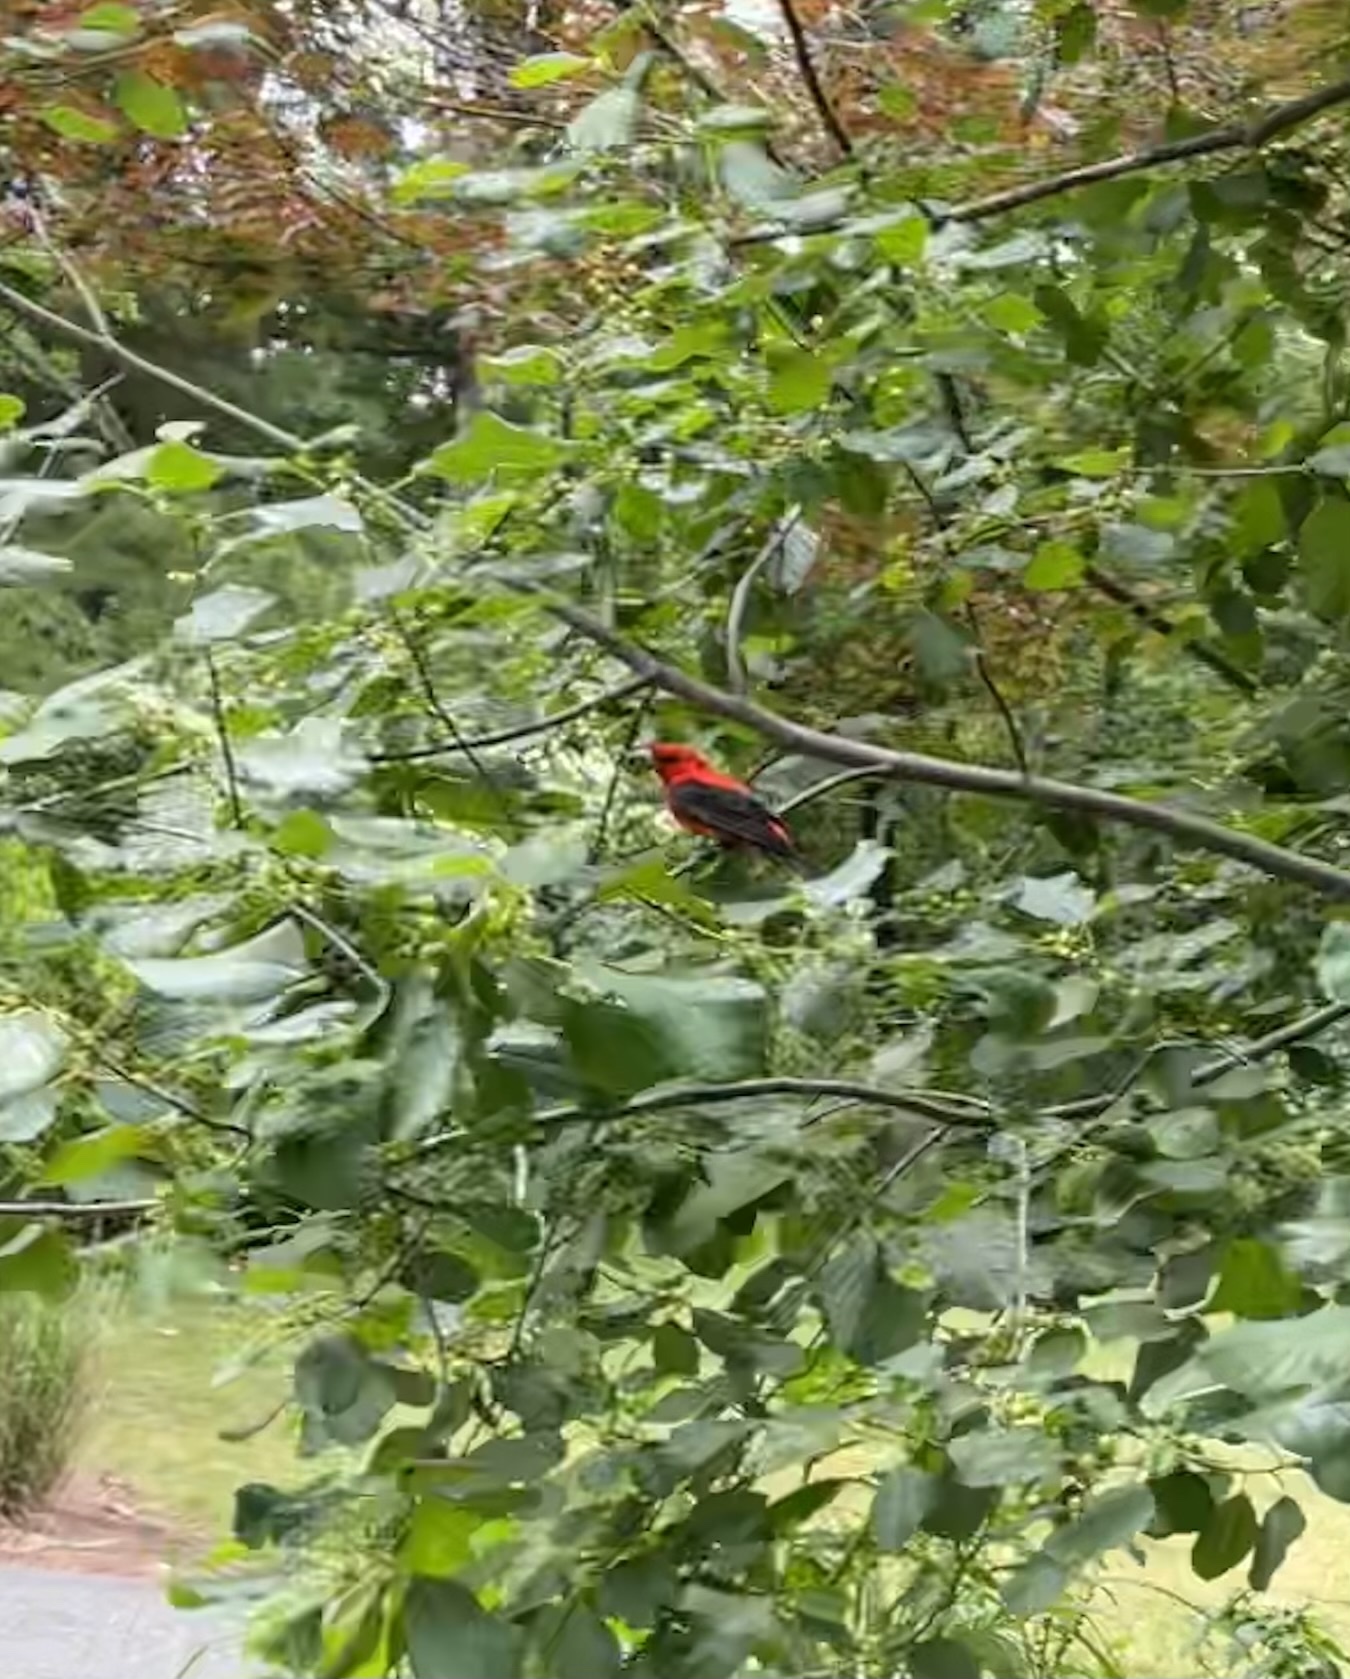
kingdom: Animalia
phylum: Chordata
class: Aves
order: Passeriformes
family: Cardinalidae
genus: Piranga
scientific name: Piranga olivacea
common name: Scarlet tanager
